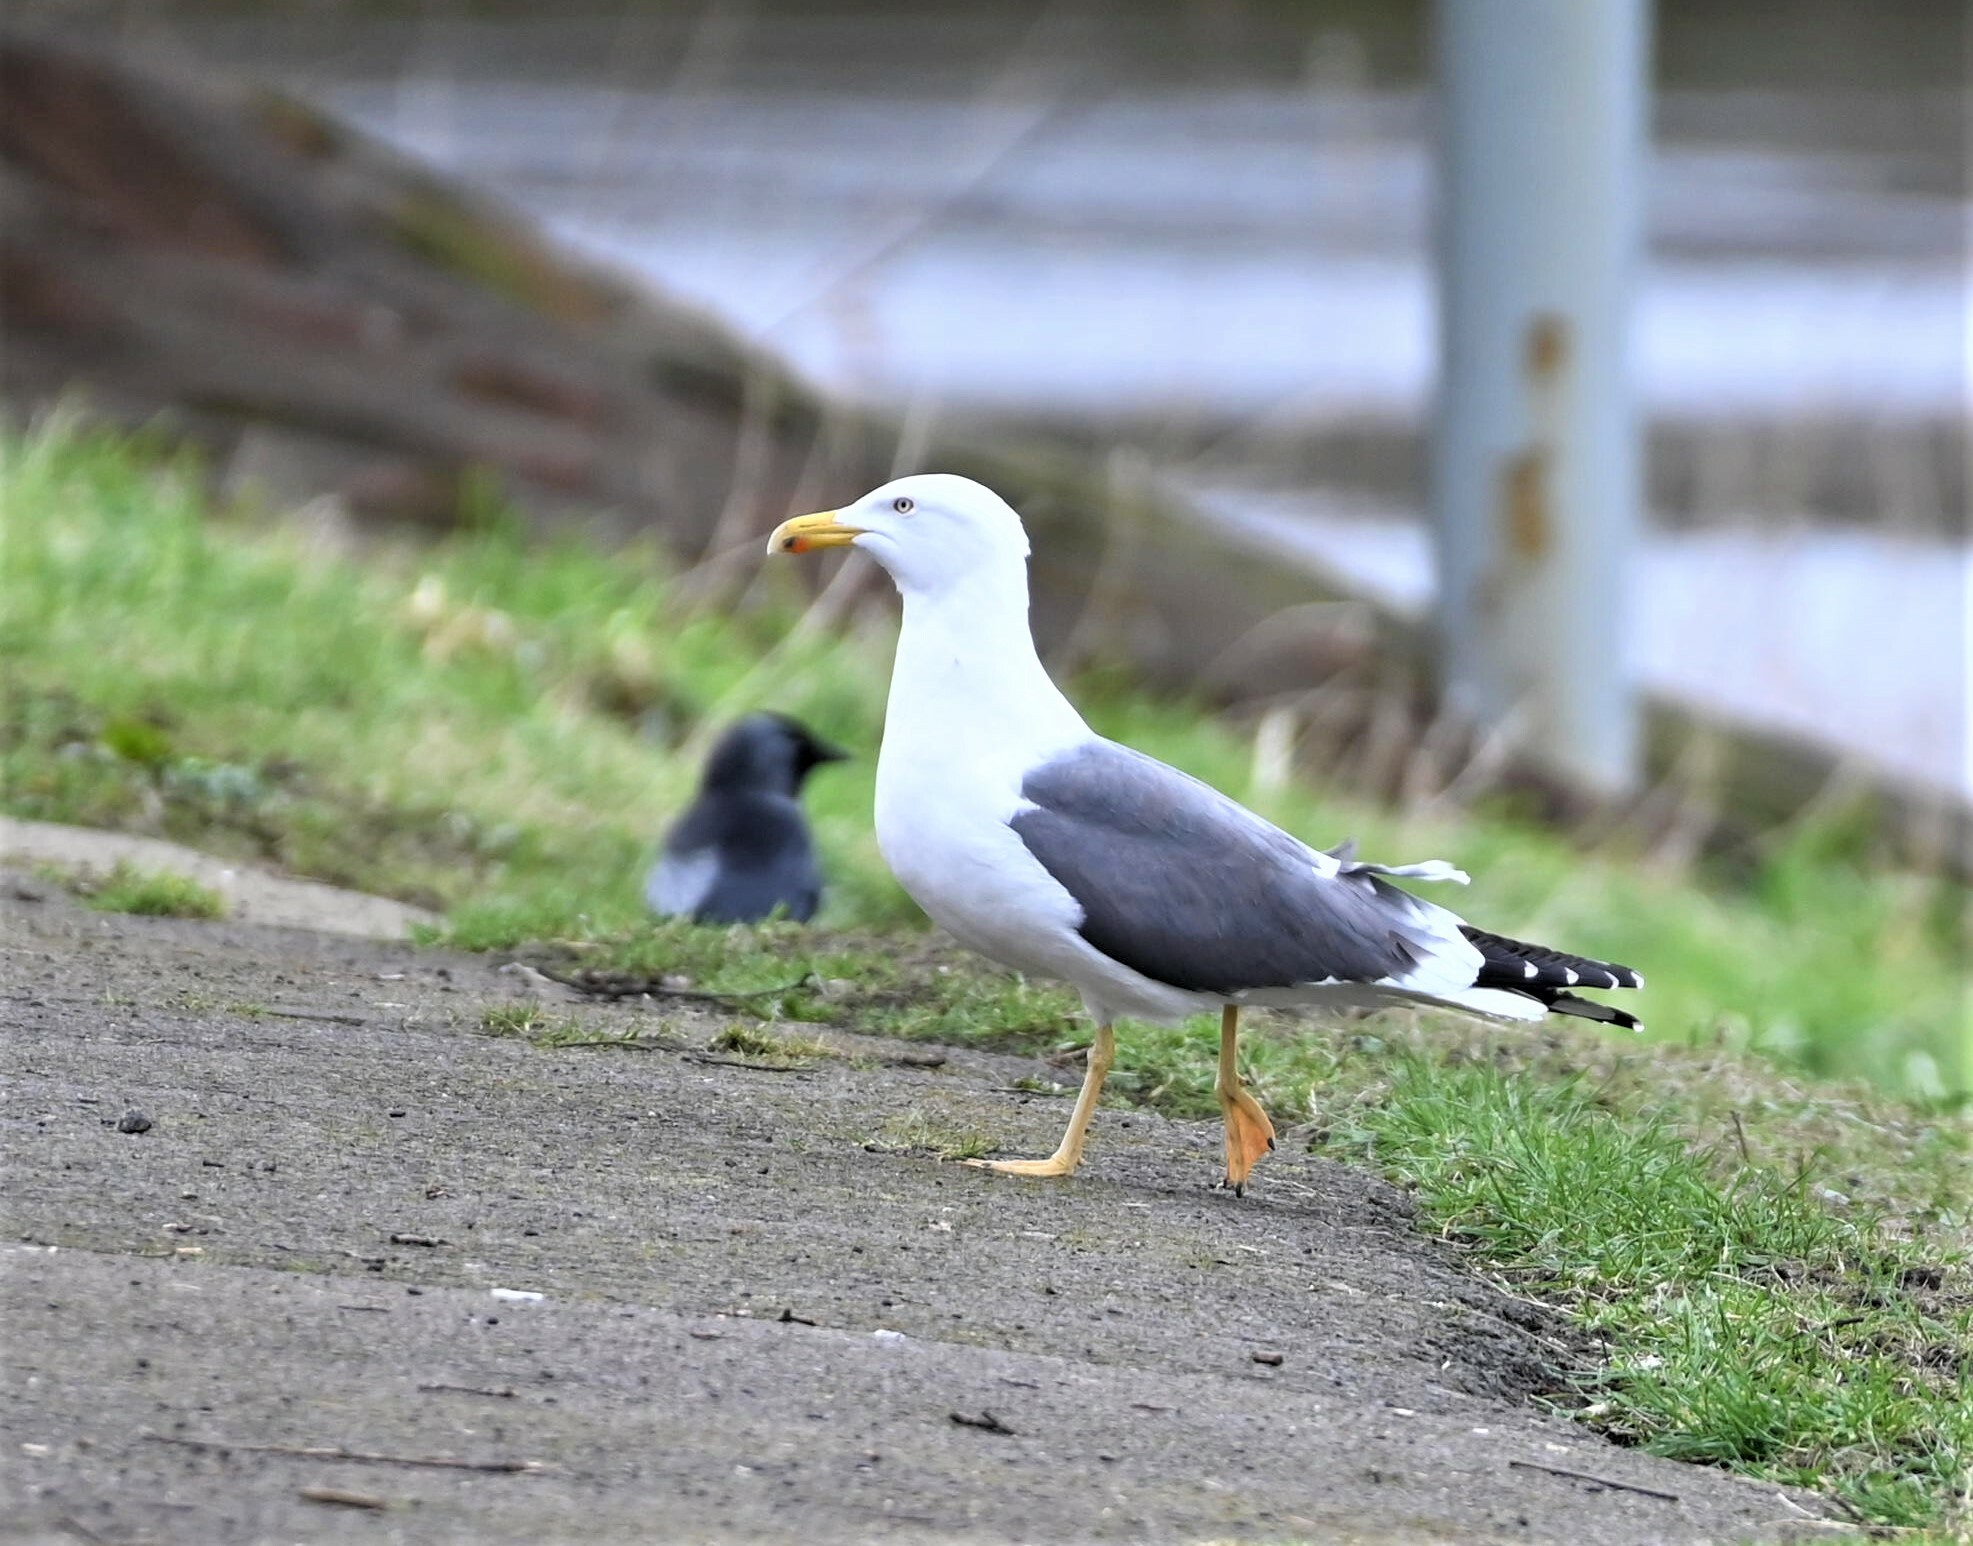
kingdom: Animalia
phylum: Chordata
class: Aves
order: Charadriiformes
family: Laridae
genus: Larus
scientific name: Larus fuscus
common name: Lesser black-backed gull
